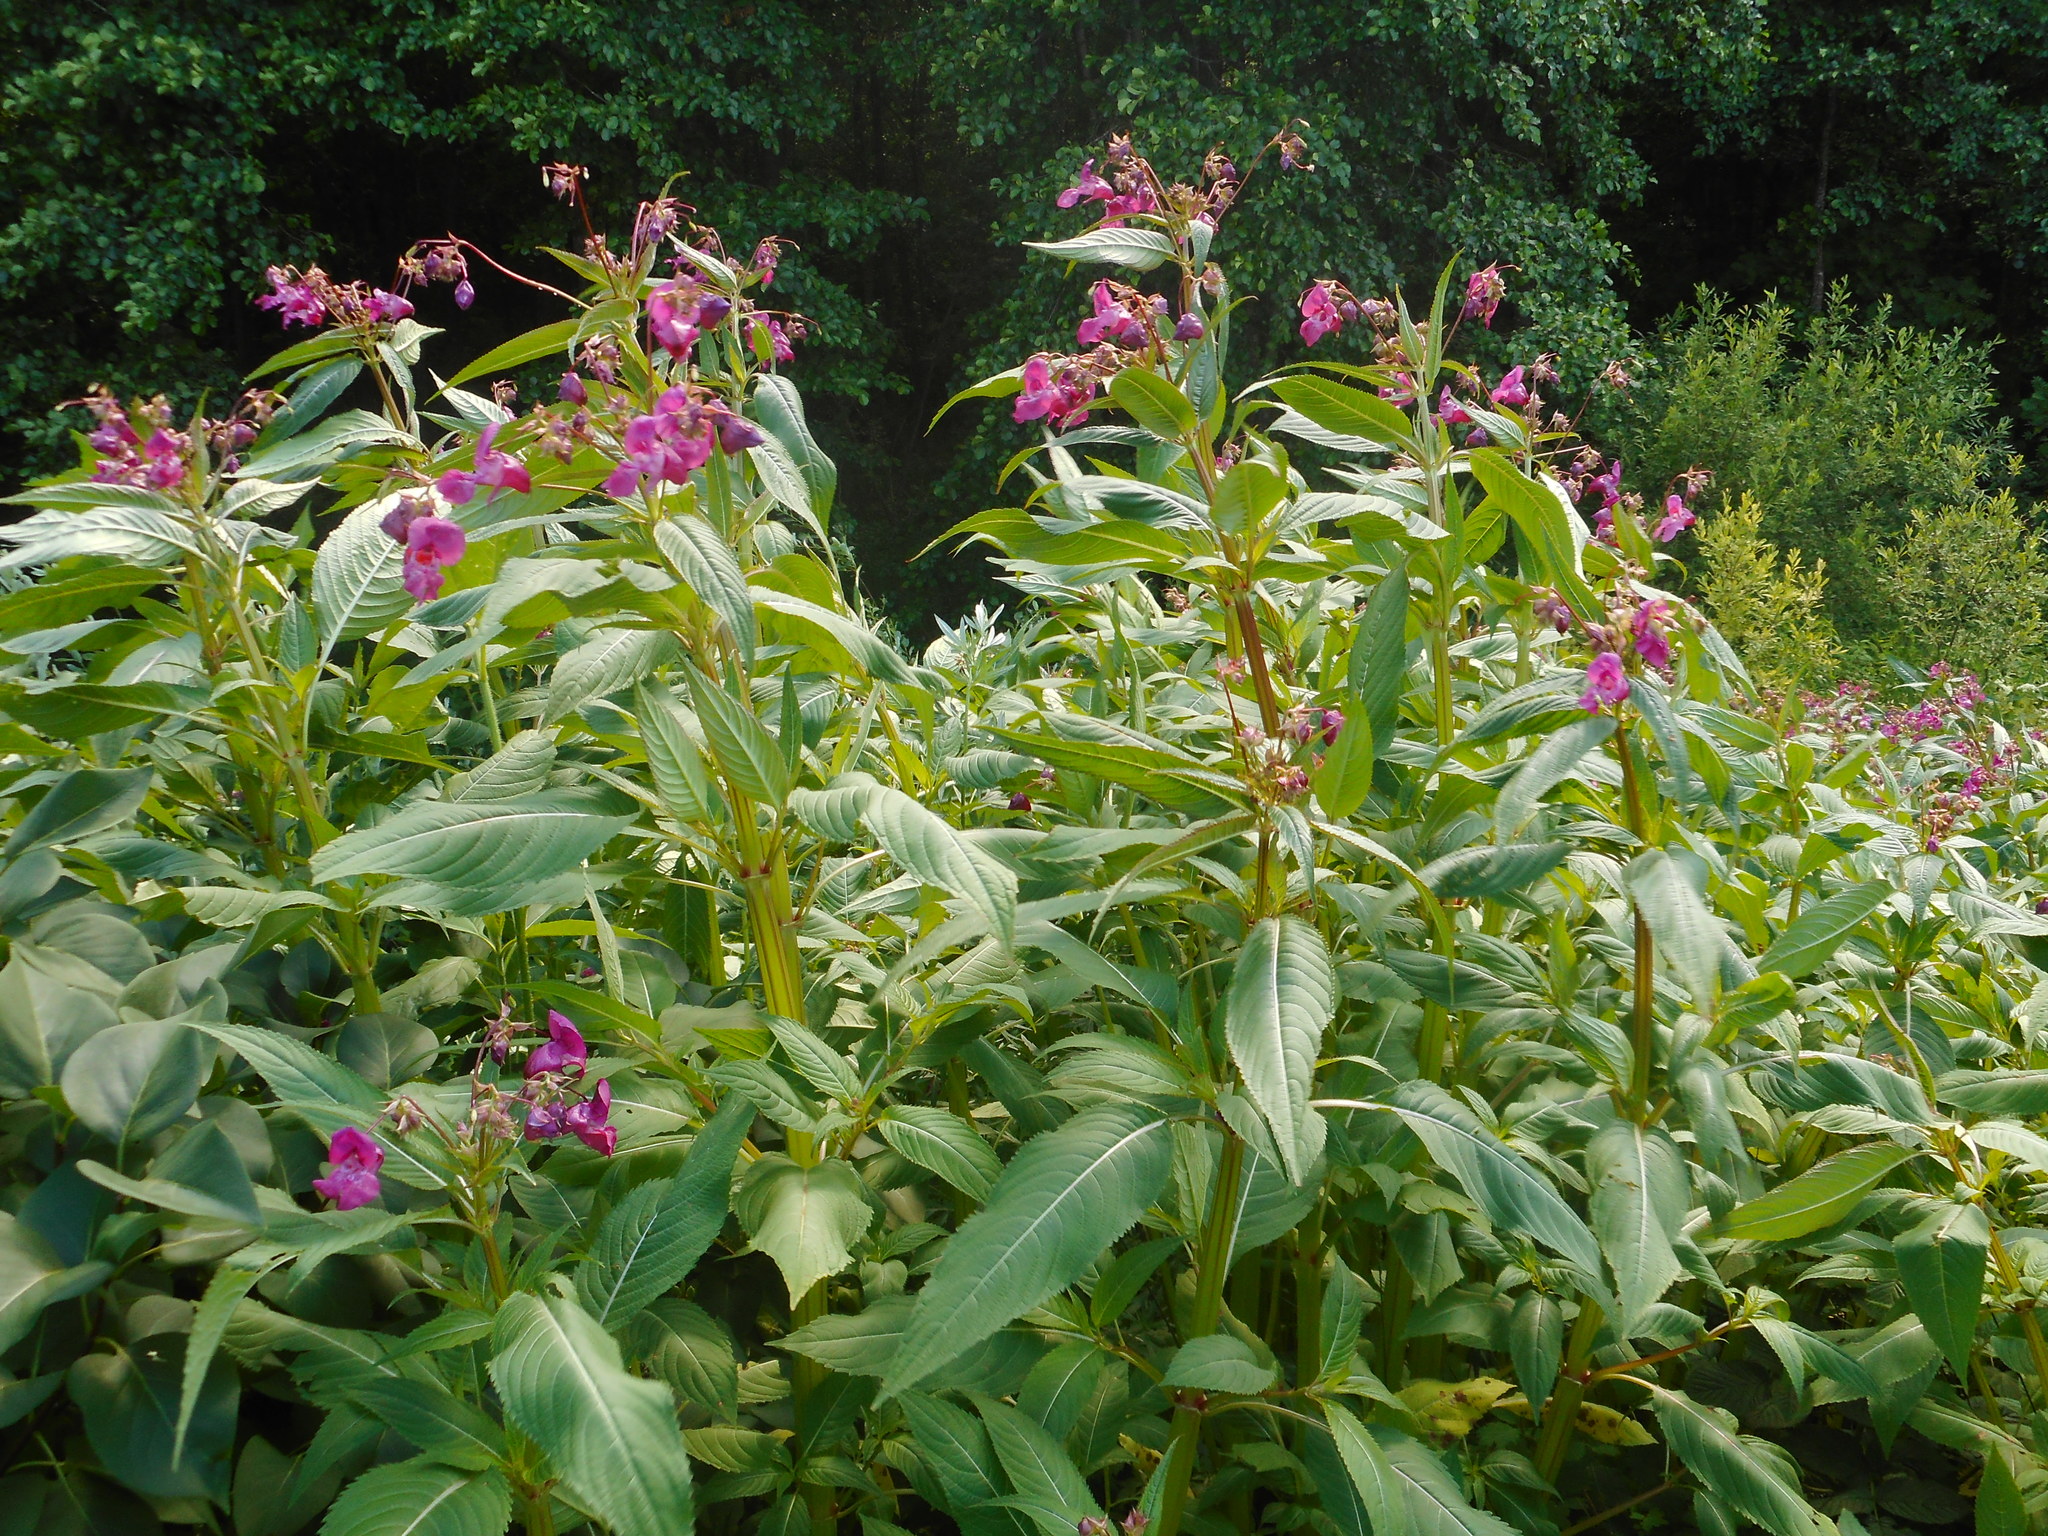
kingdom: Plantae
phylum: Tracheophyta
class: Magnoliopsida
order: Ericales
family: Balsaminaceae
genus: Impatiens
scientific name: Impatiens glandulifera
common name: Himalayan balsam
